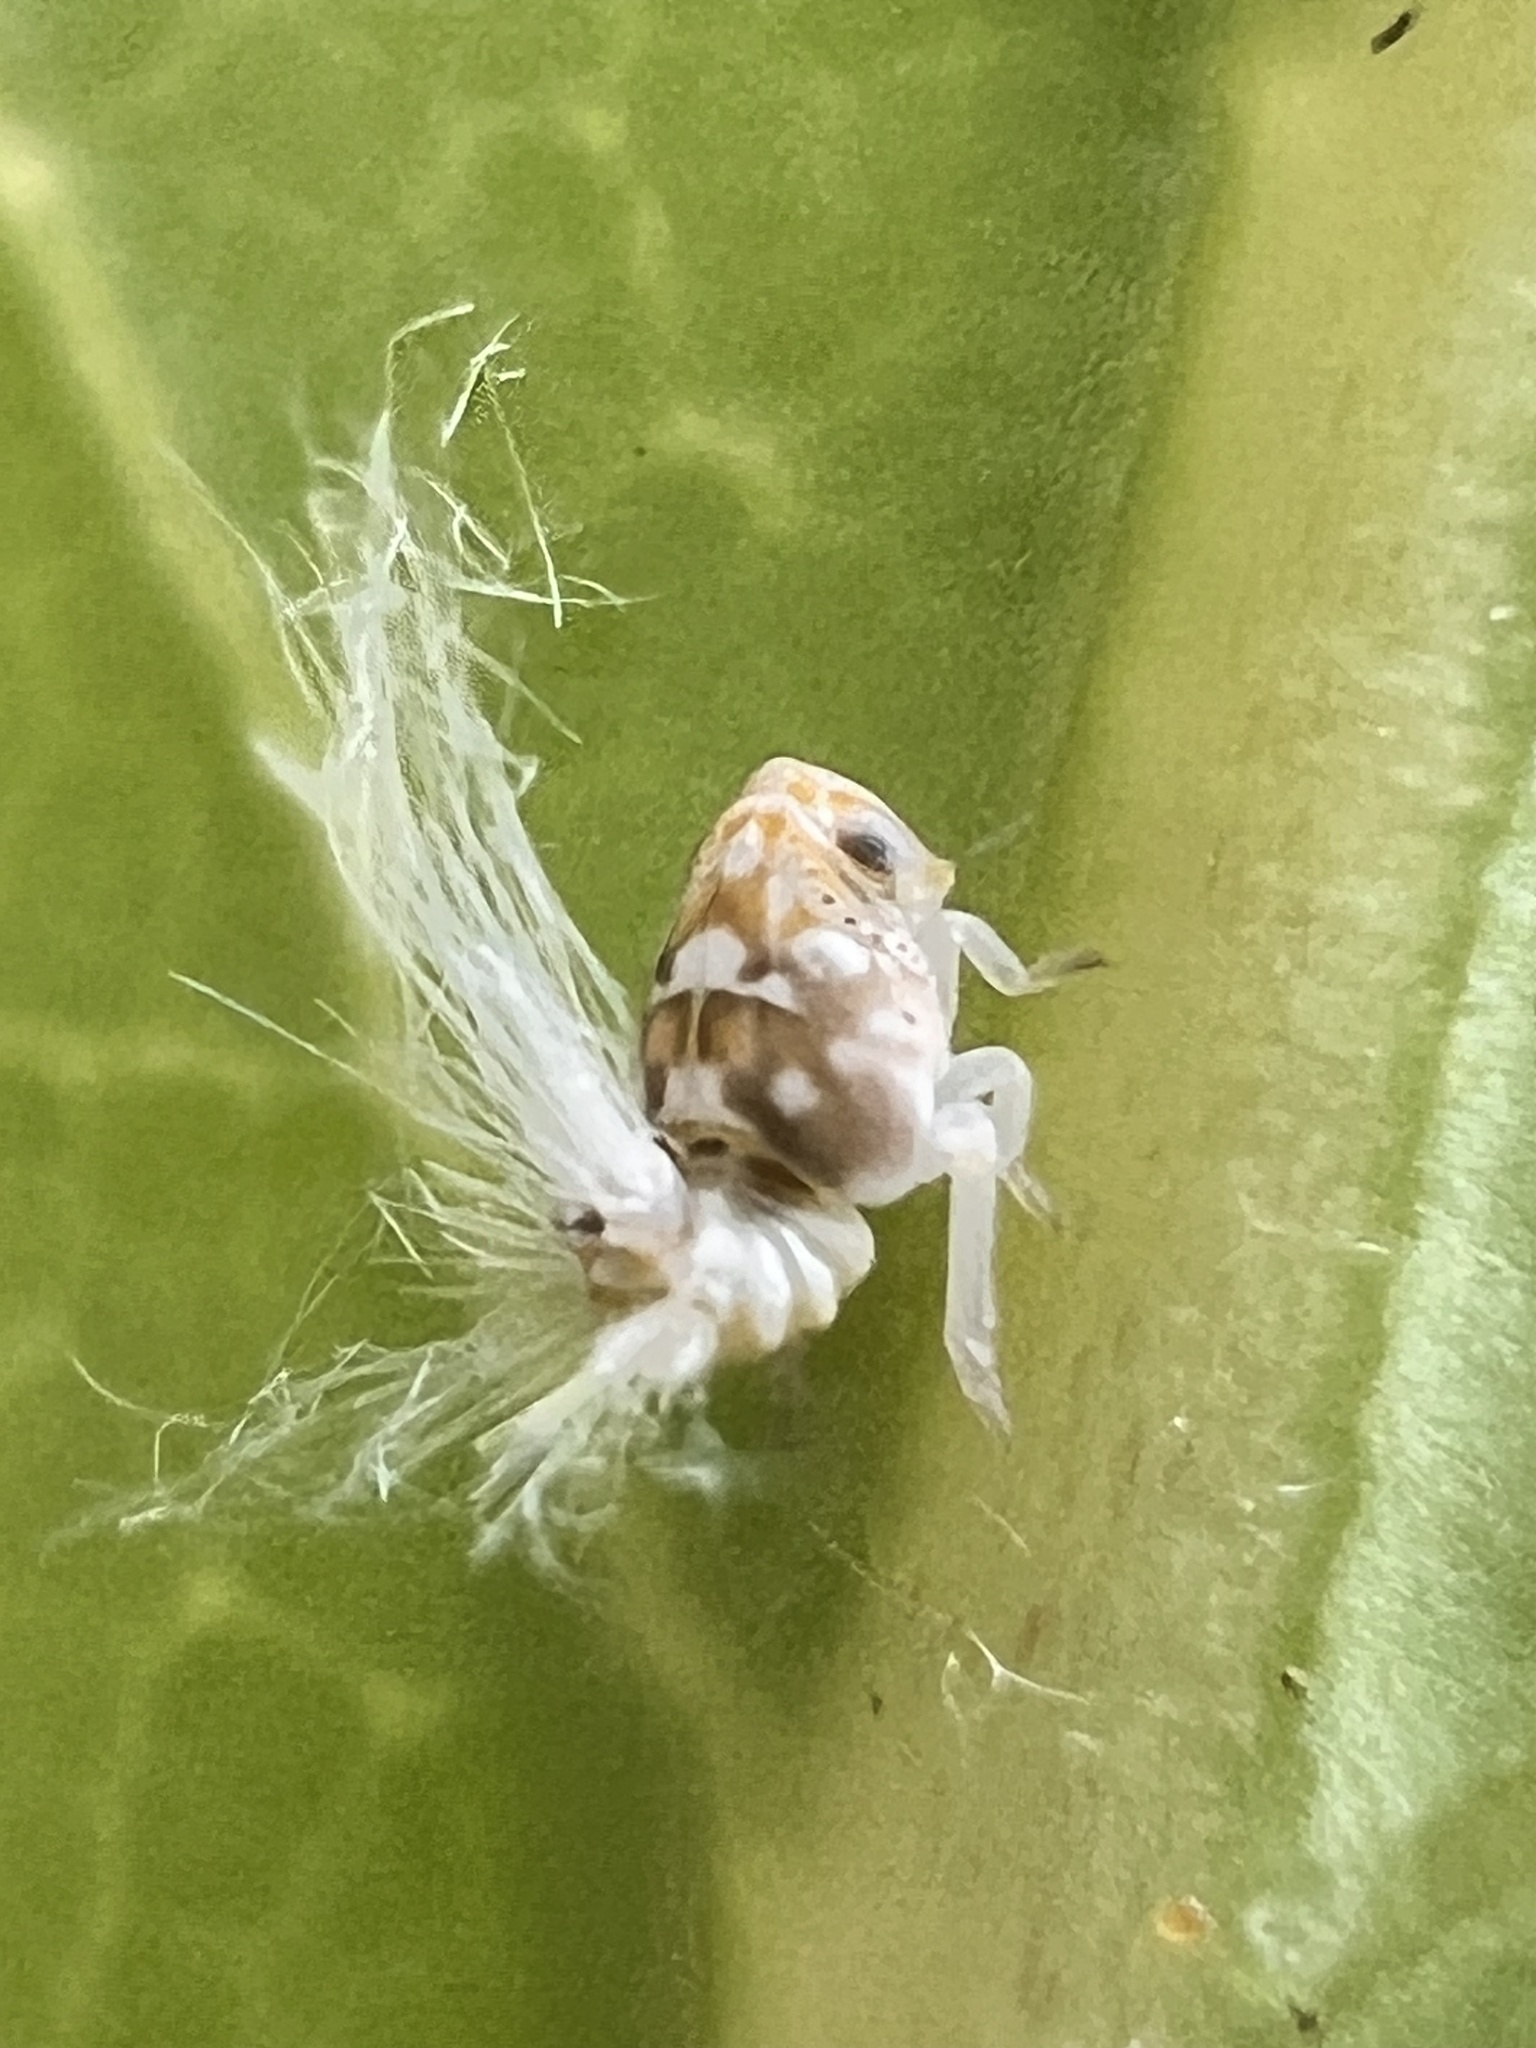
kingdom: Animalia
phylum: Arthropoda
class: Insecta
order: Hemiptera
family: Ricaniidae
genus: Scolypopa
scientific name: Scolypopa australis
